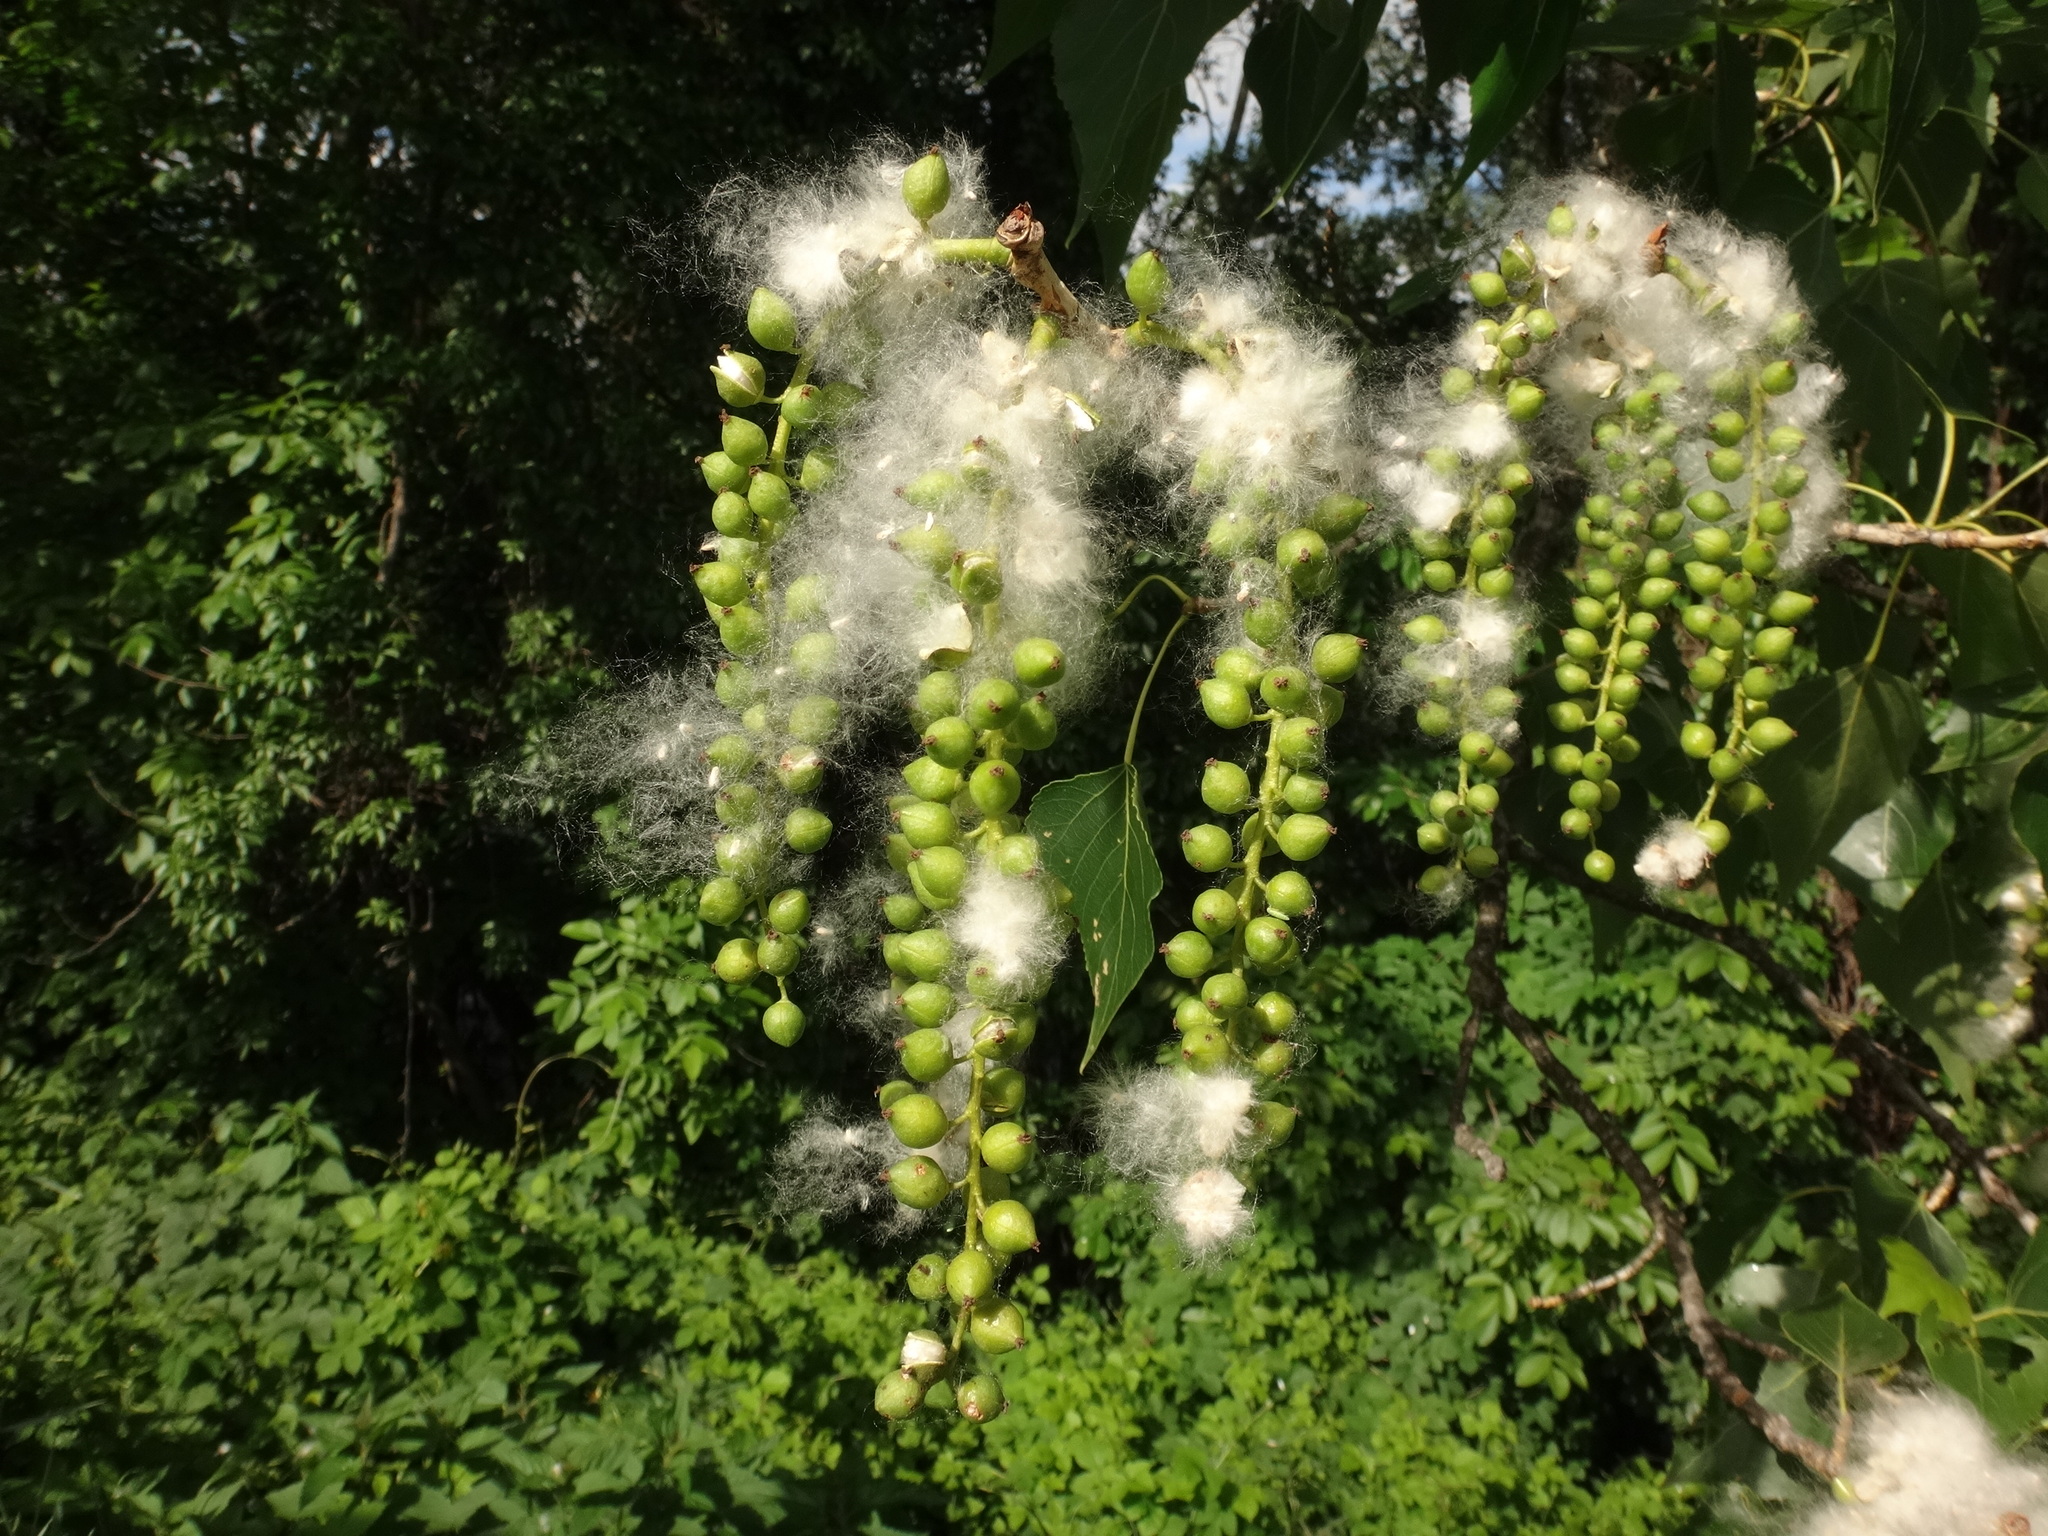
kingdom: Plantae
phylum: Tracheophyta
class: Magnoliopsida
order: Malpighiales
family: Salicaceae
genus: Populus
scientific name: Populus nigra
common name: Black poplar
